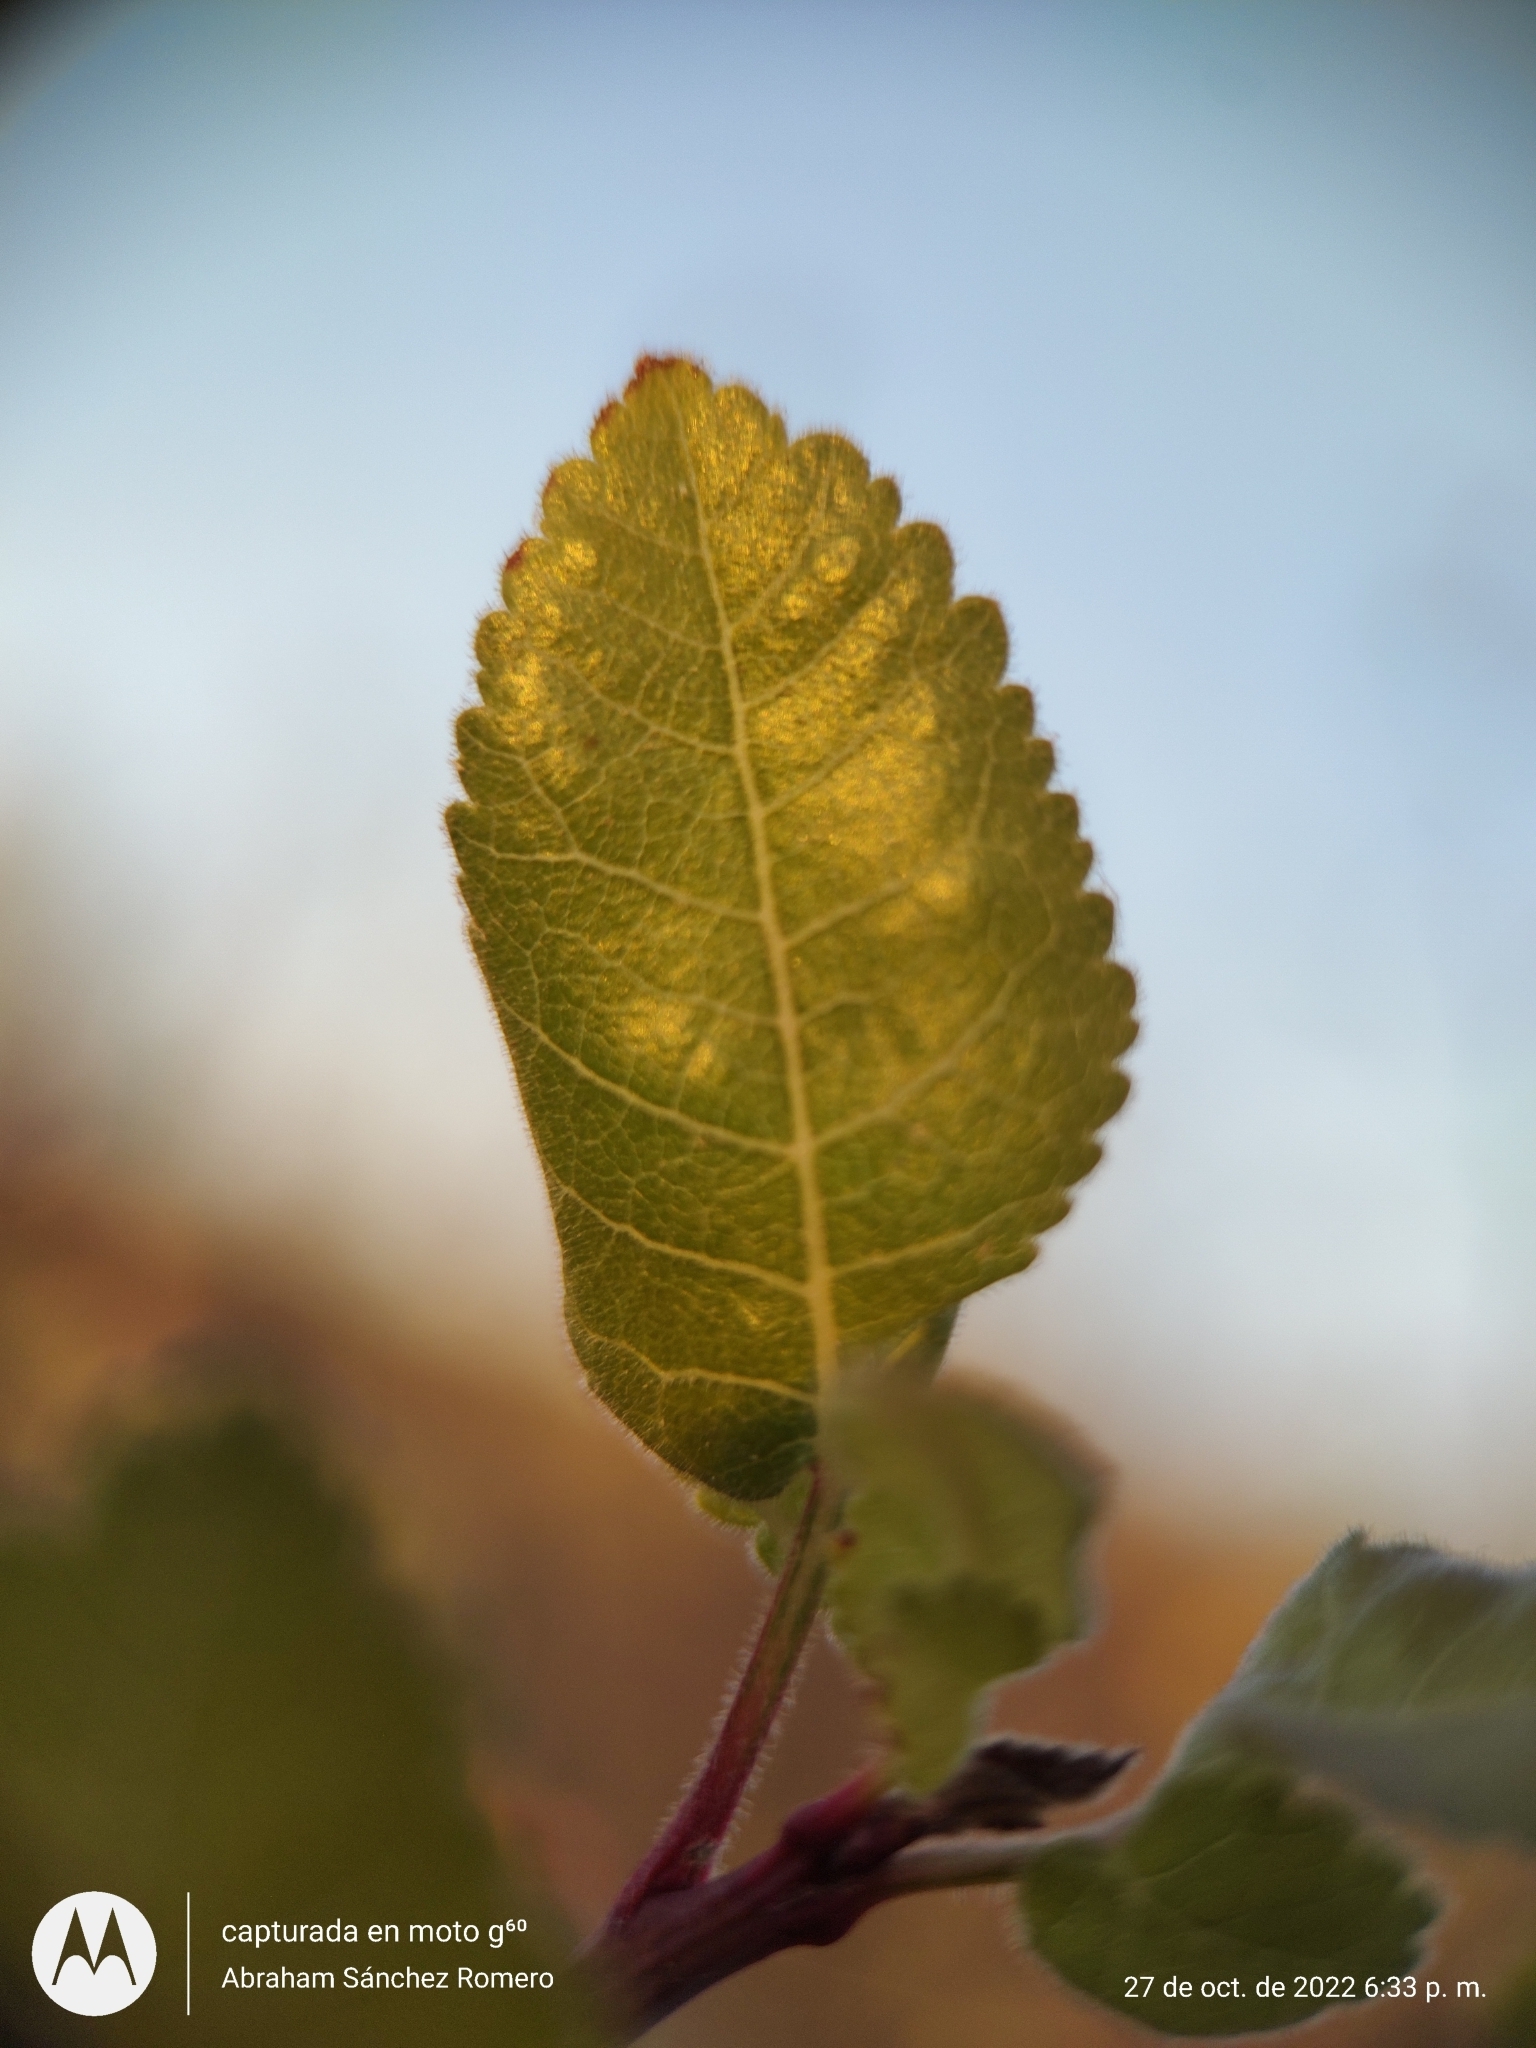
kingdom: Plantae
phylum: Tracheophyta
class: Magnoliopsida
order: Sapindales
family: Burseraceae
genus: Bursera
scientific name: Bursera epinnata
